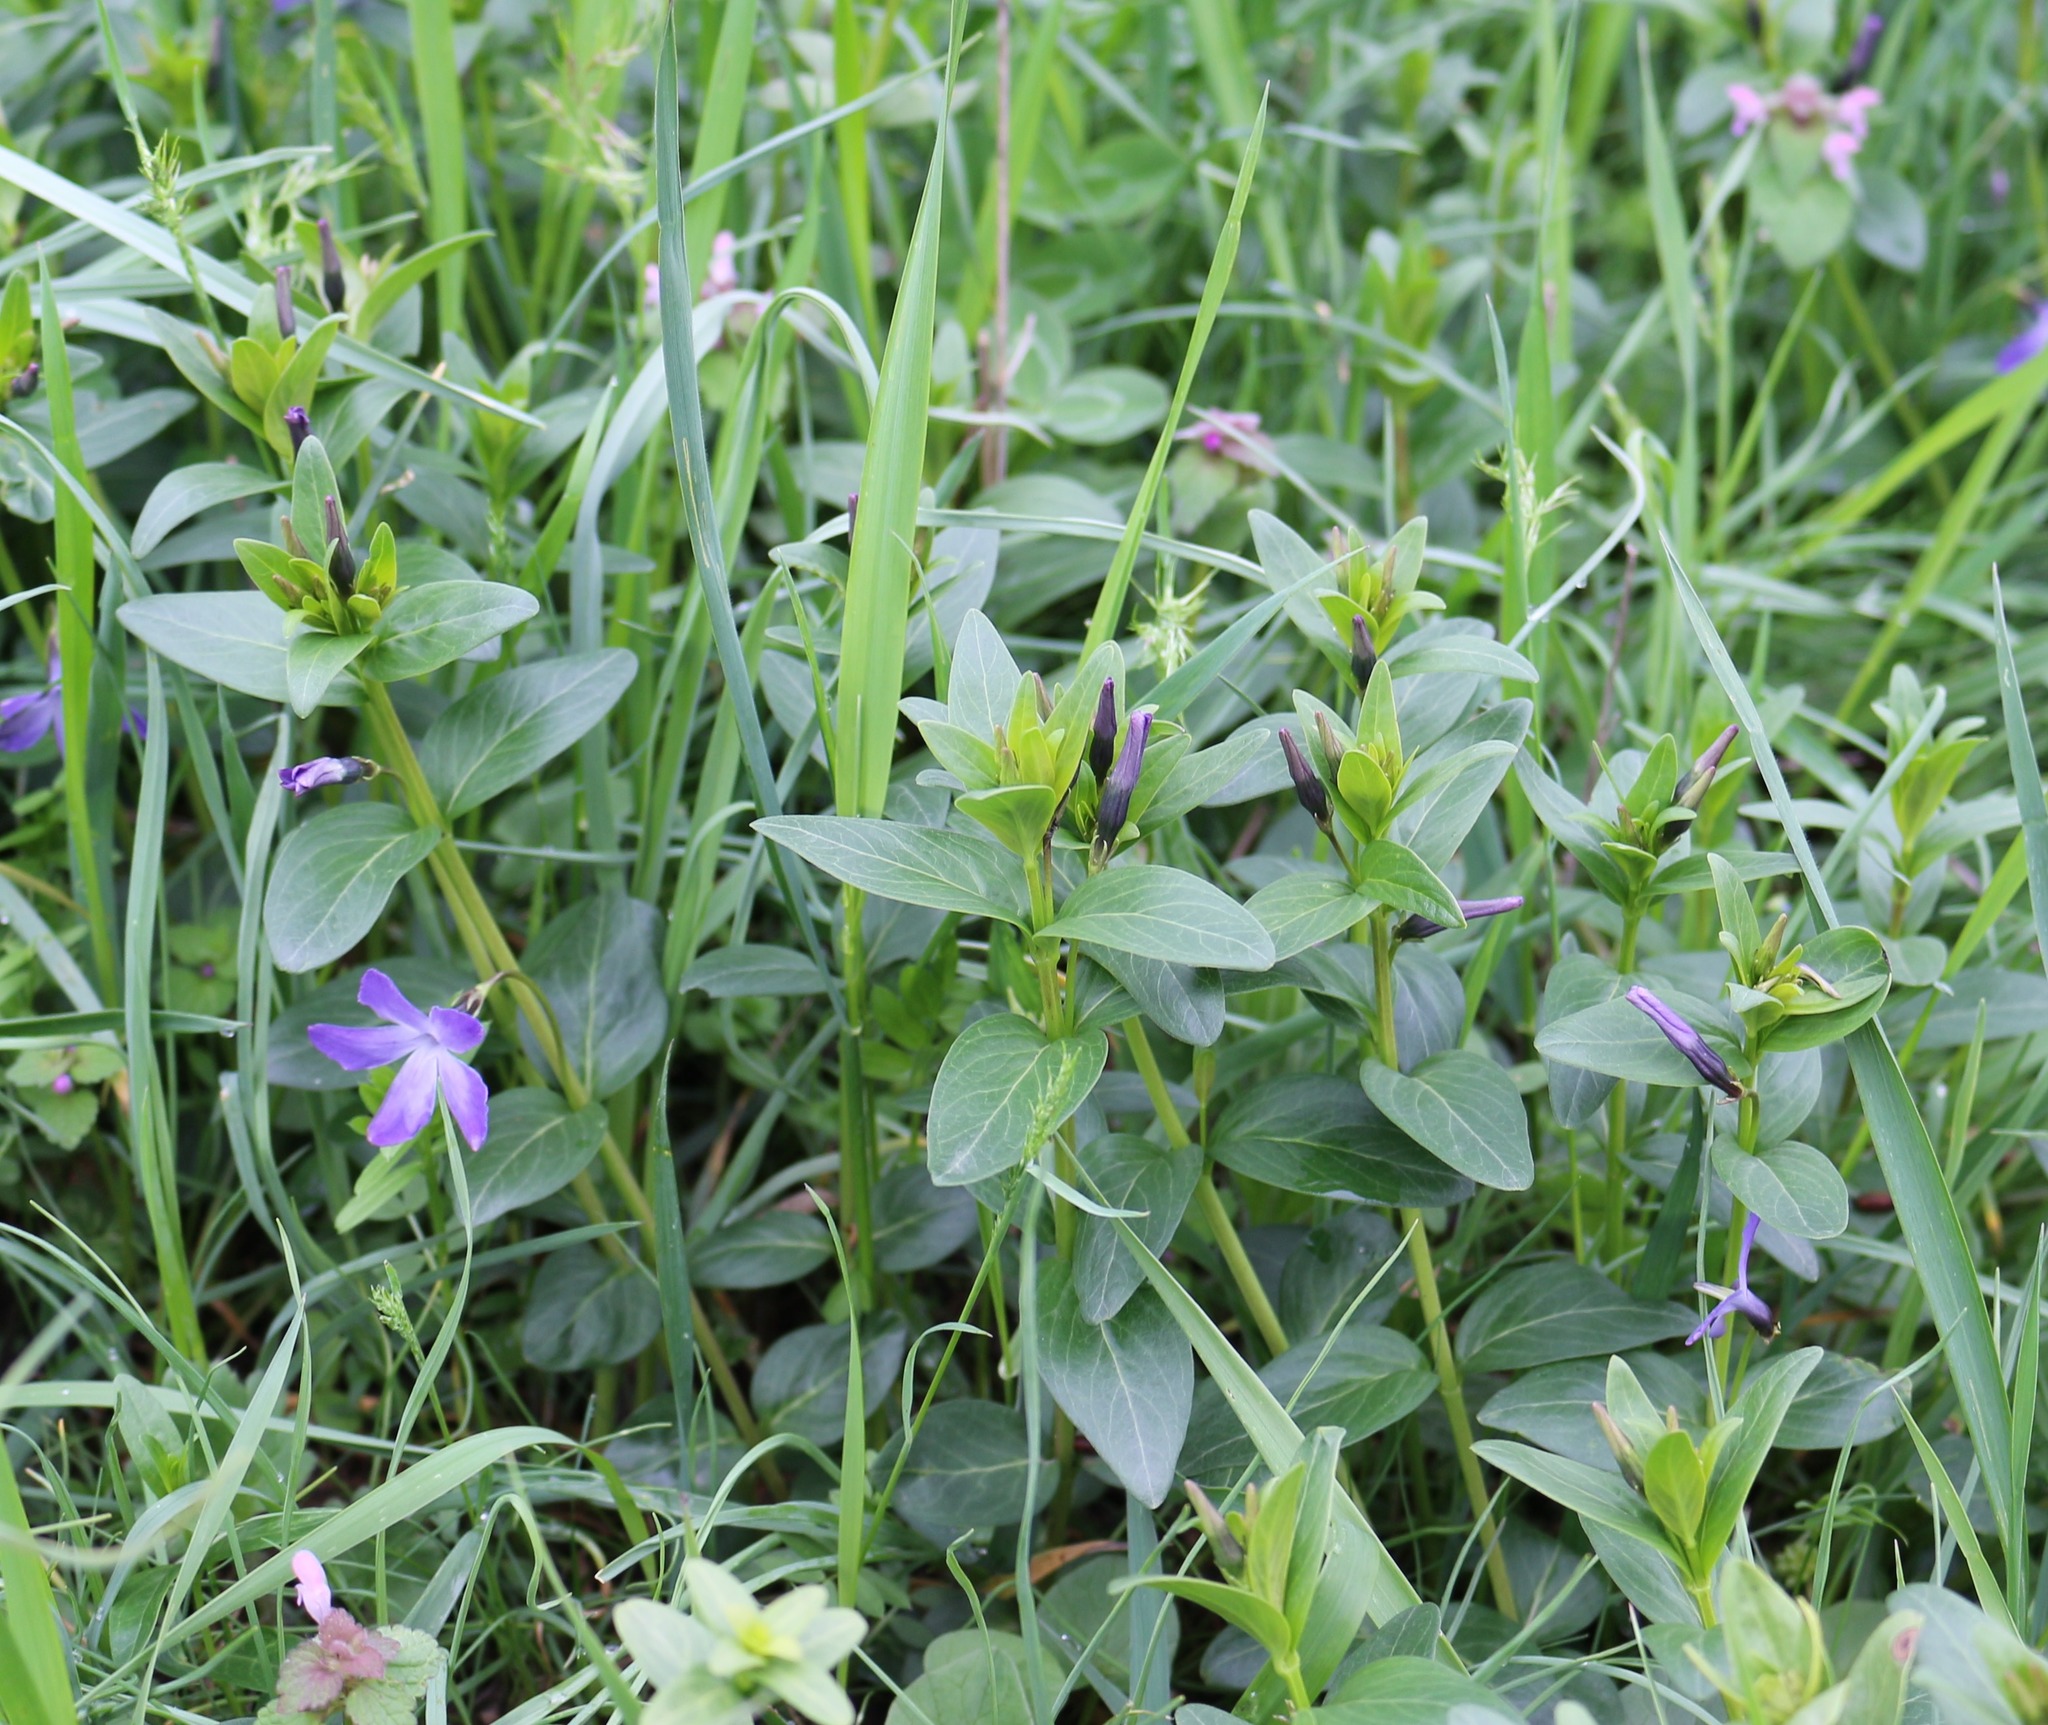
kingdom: Plantae
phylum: Tracheophyta
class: Magnoliopsida
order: Gentianales
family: Apocynaceae
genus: Vinca
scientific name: Vinca herbacea
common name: Herbaceous periwinkle
